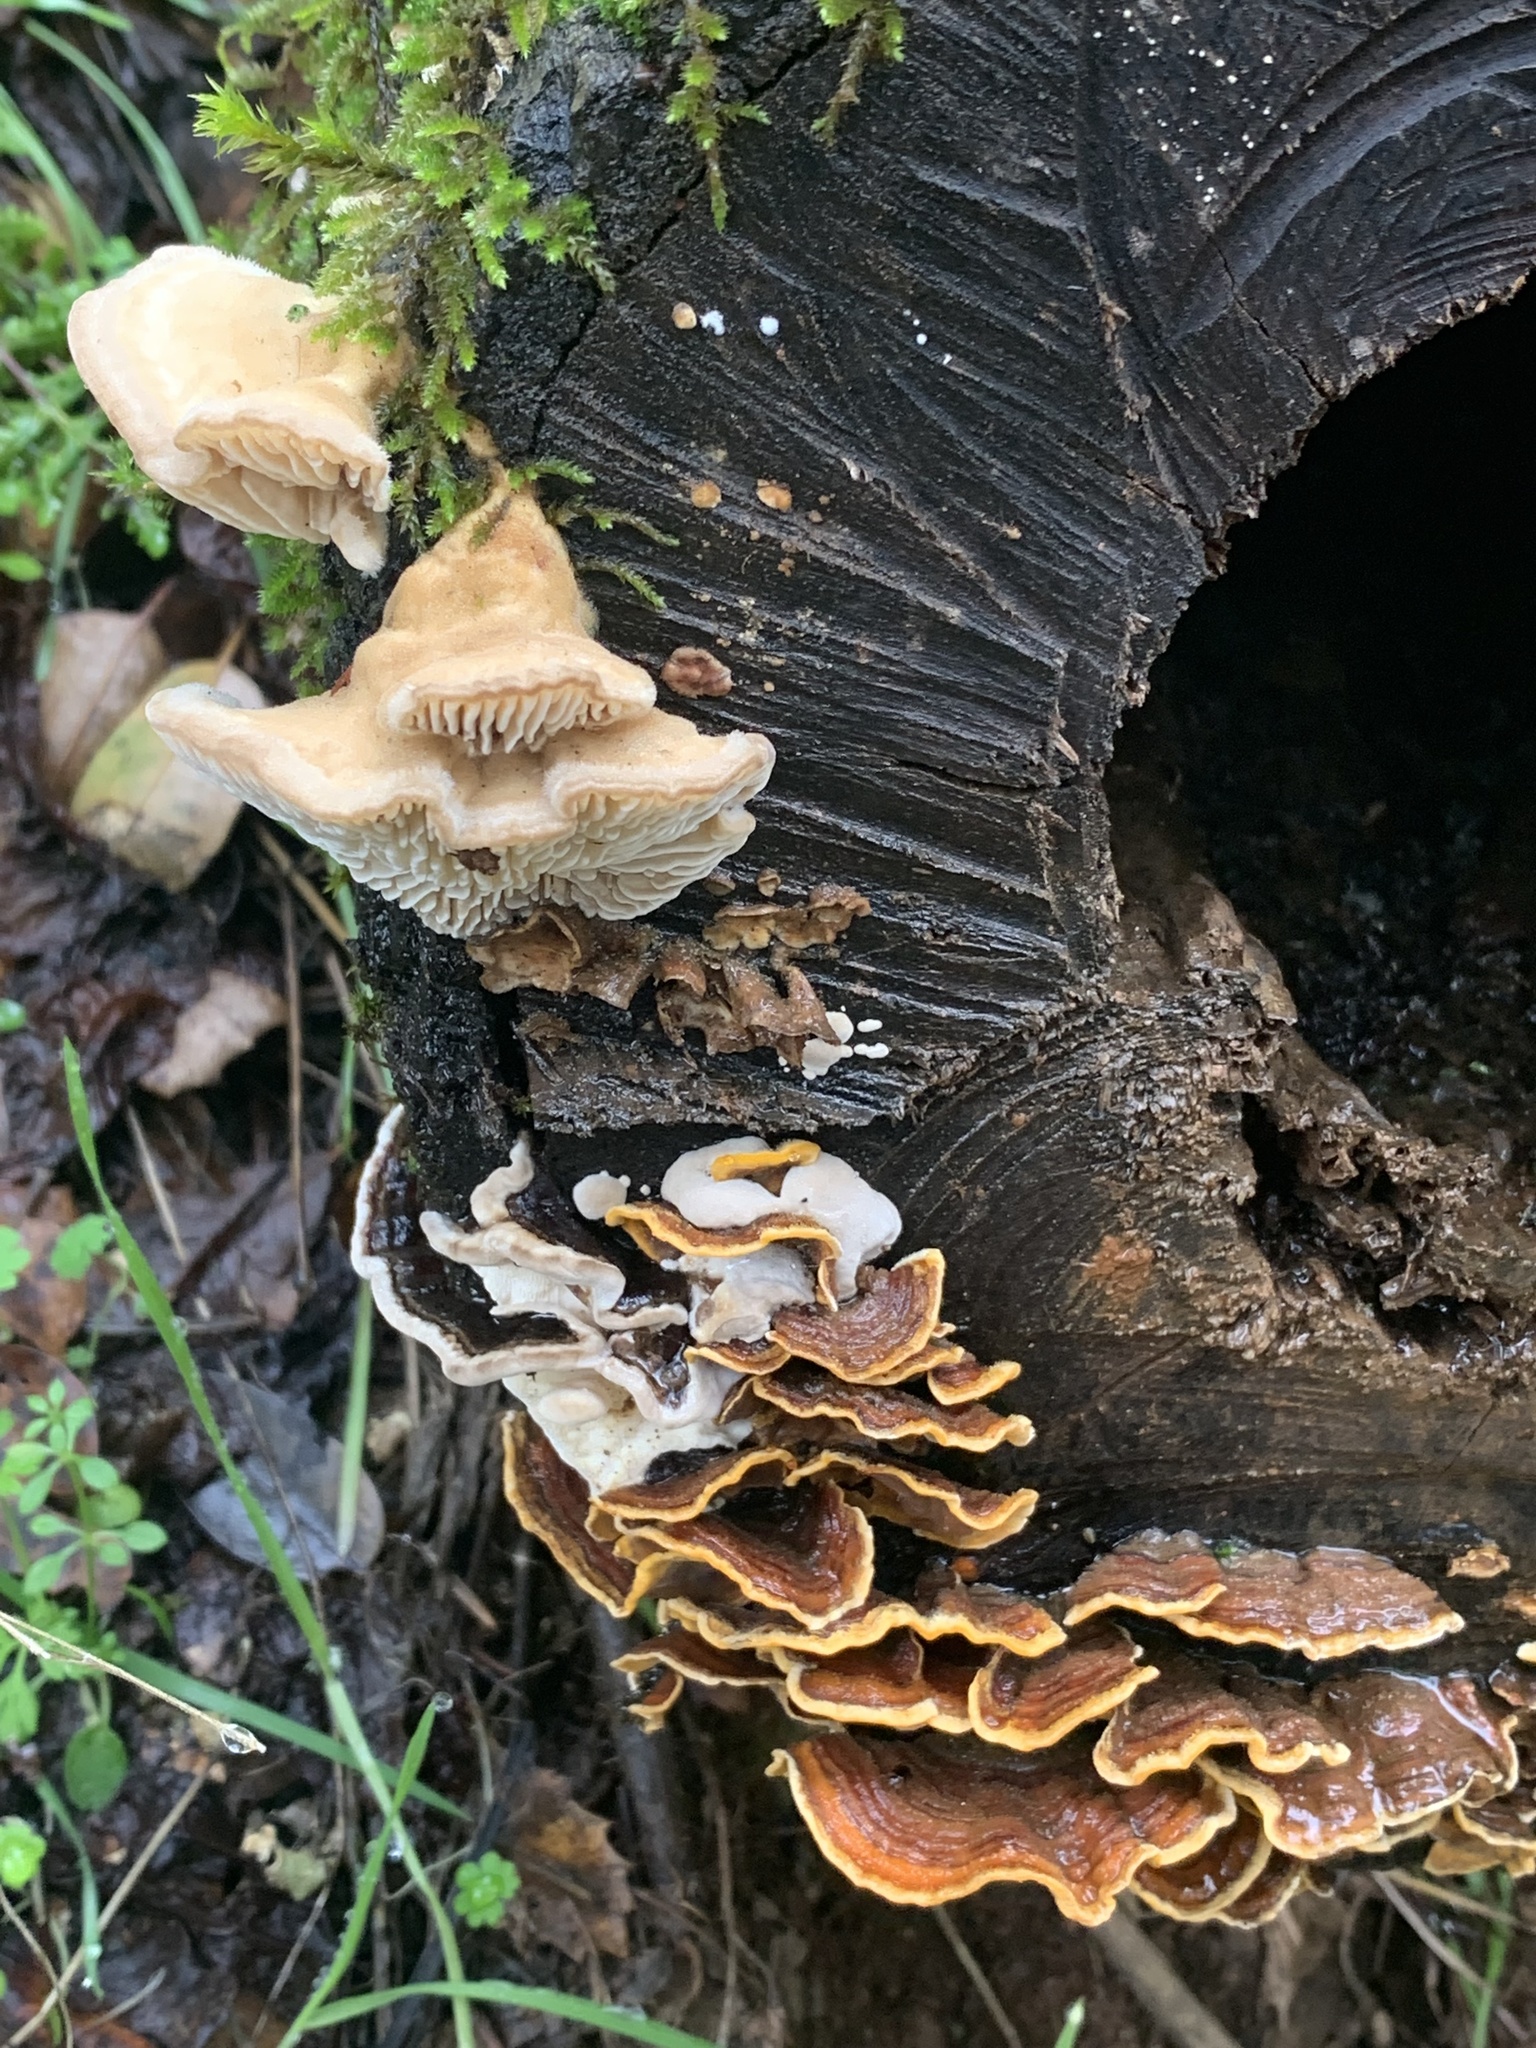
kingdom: Fungi
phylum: Basidiomycota
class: Agaricomycetes
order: Polyporales
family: Polyporaceae
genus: Lenzites
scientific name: Lenzites betulinus
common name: Birch mazegill
